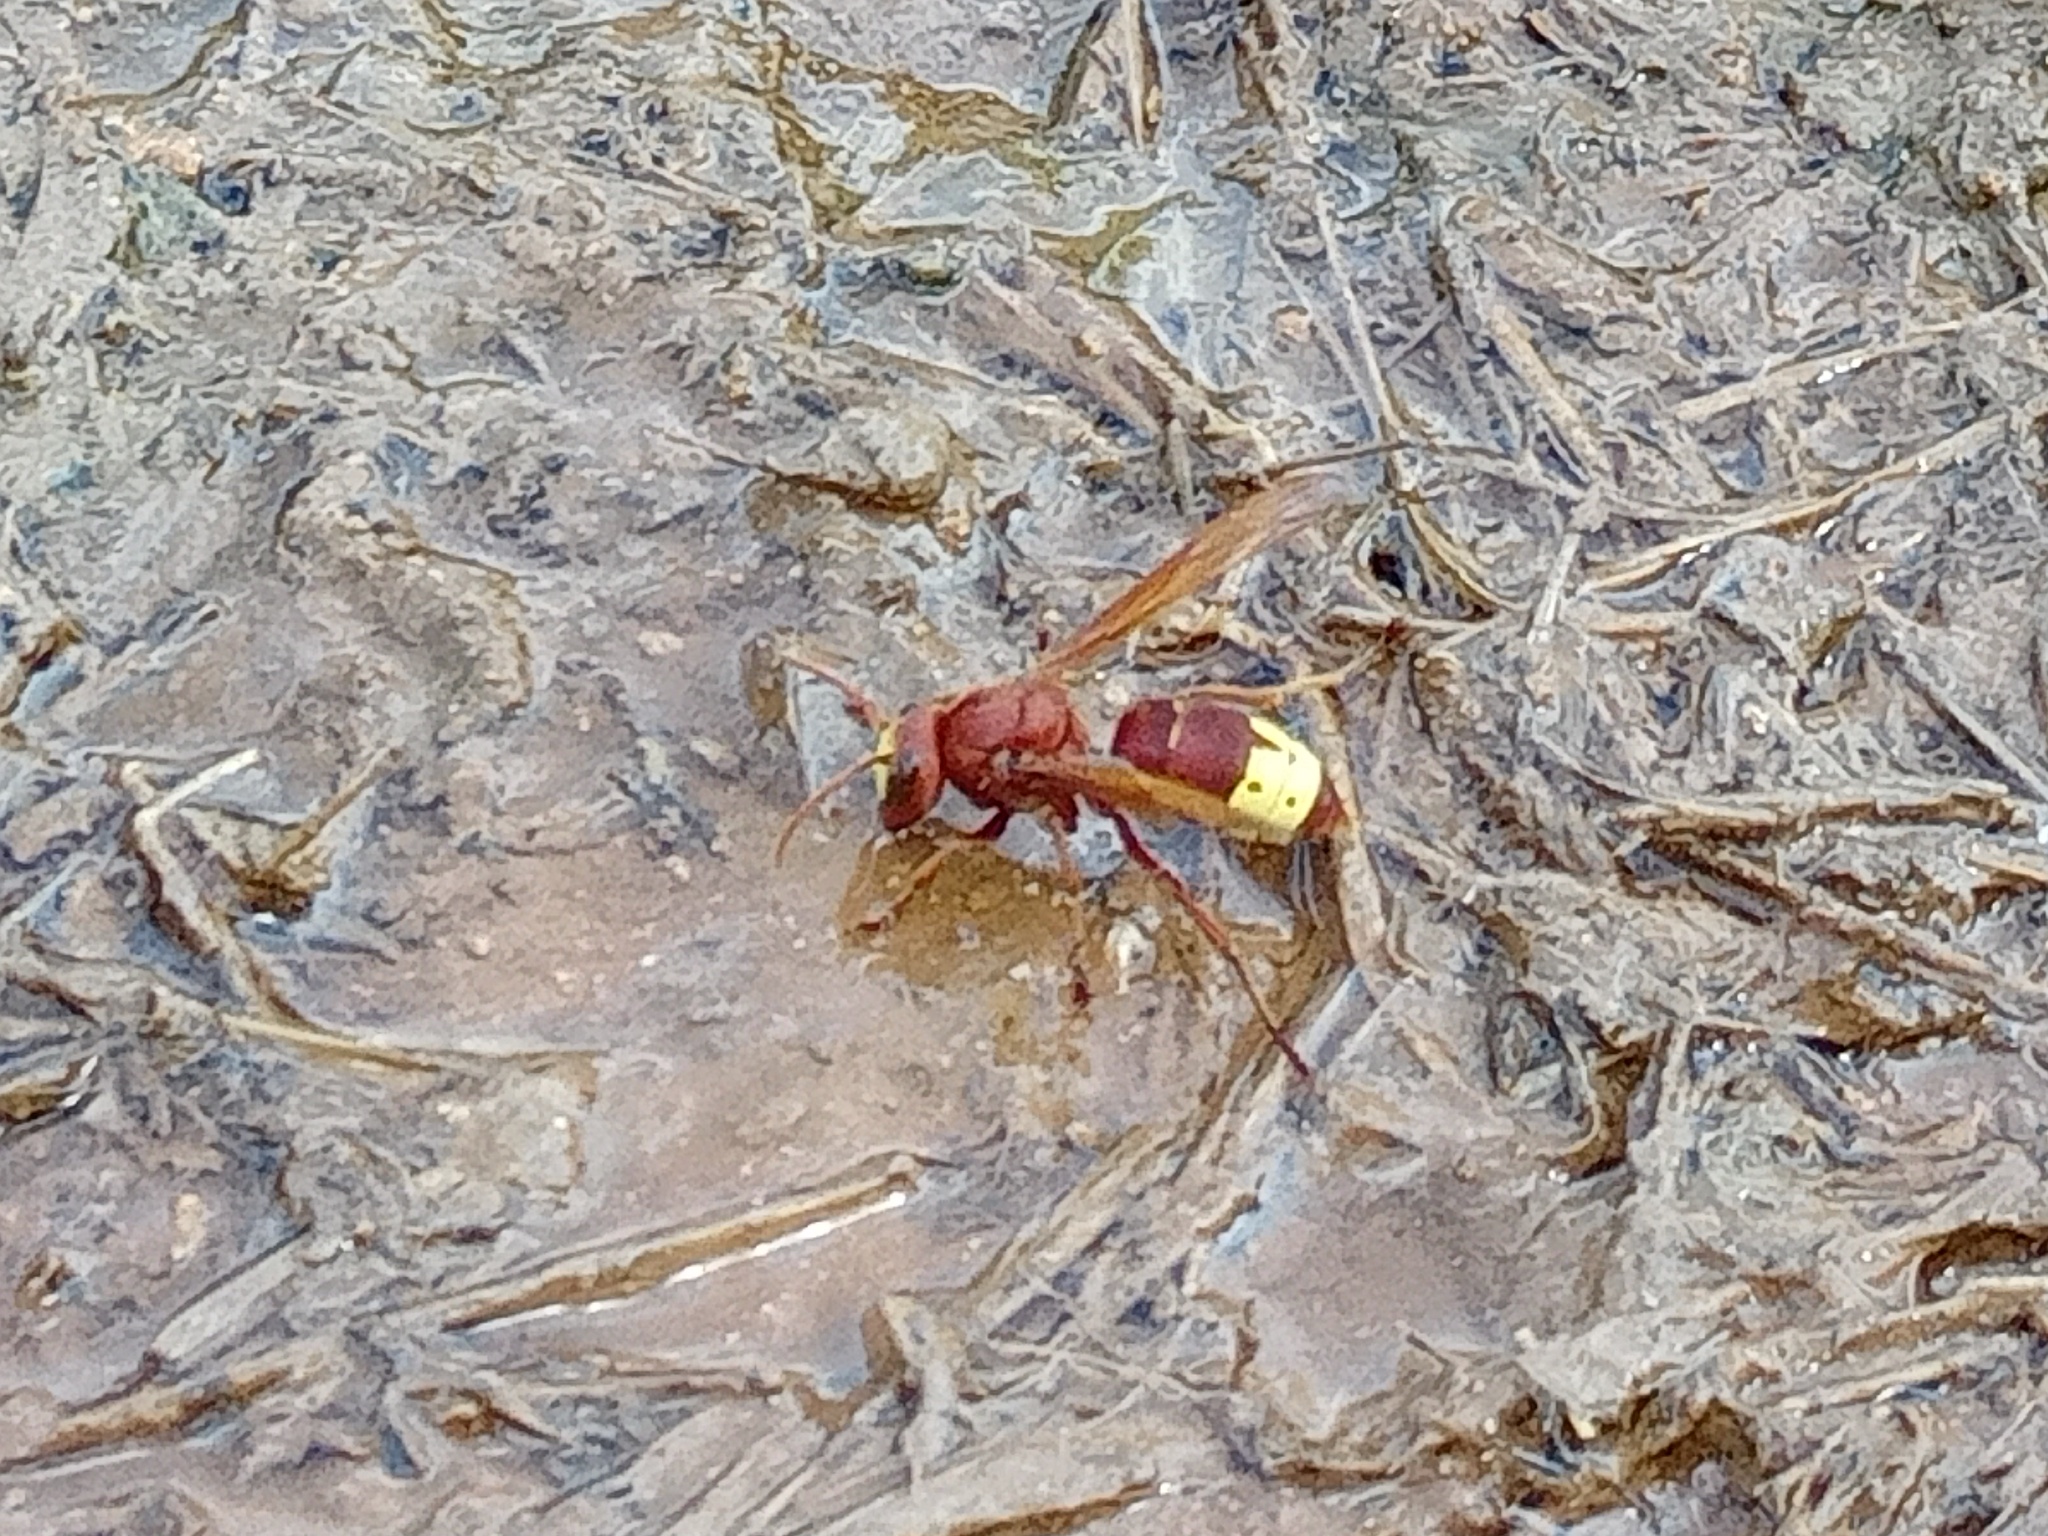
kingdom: Animalia
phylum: Arthropoda
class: Insecta
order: Hymenoptera
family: Vespidae
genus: Vespa
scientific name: Vespa orientalis
